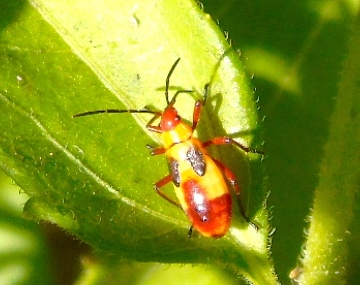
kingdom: Animalia
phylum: Arthropoda
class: Insecta
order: Hemiptera
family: Lygaeidae
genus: Oncopeltus
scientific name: Oncopeltus guttaloides
